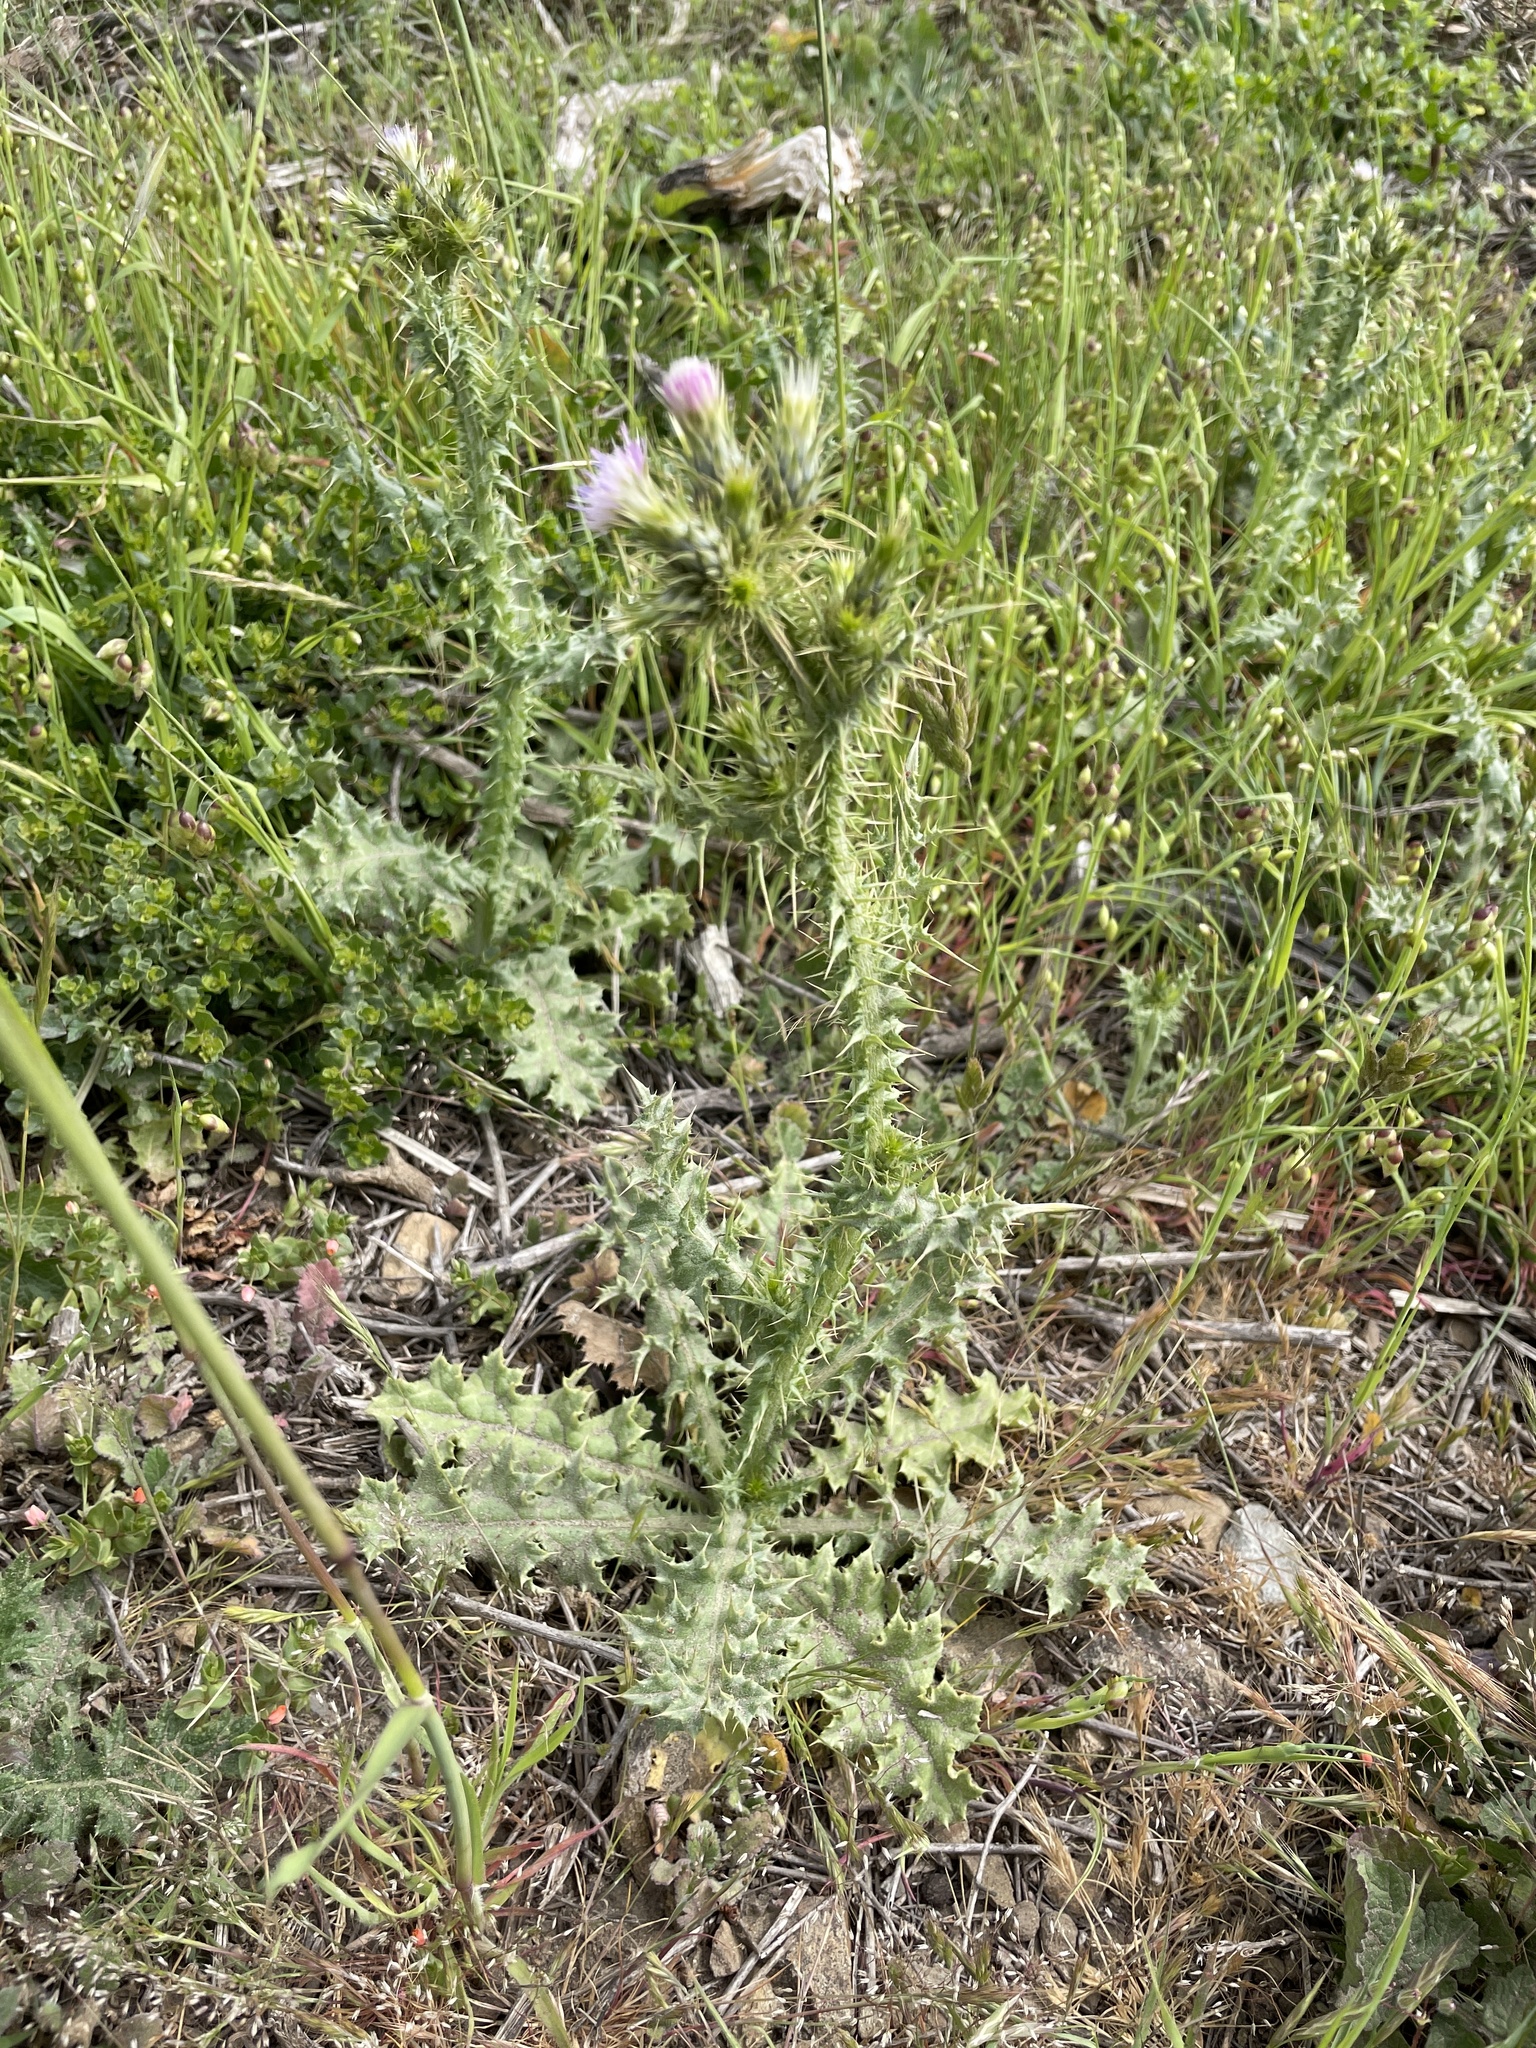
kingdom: Plantae
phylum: Tracheophyta
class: Magnoliopsida
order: Asterales
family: Asteraceae
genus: Carduus
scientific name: Carduus tenuiflorus
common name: Slender thistle
